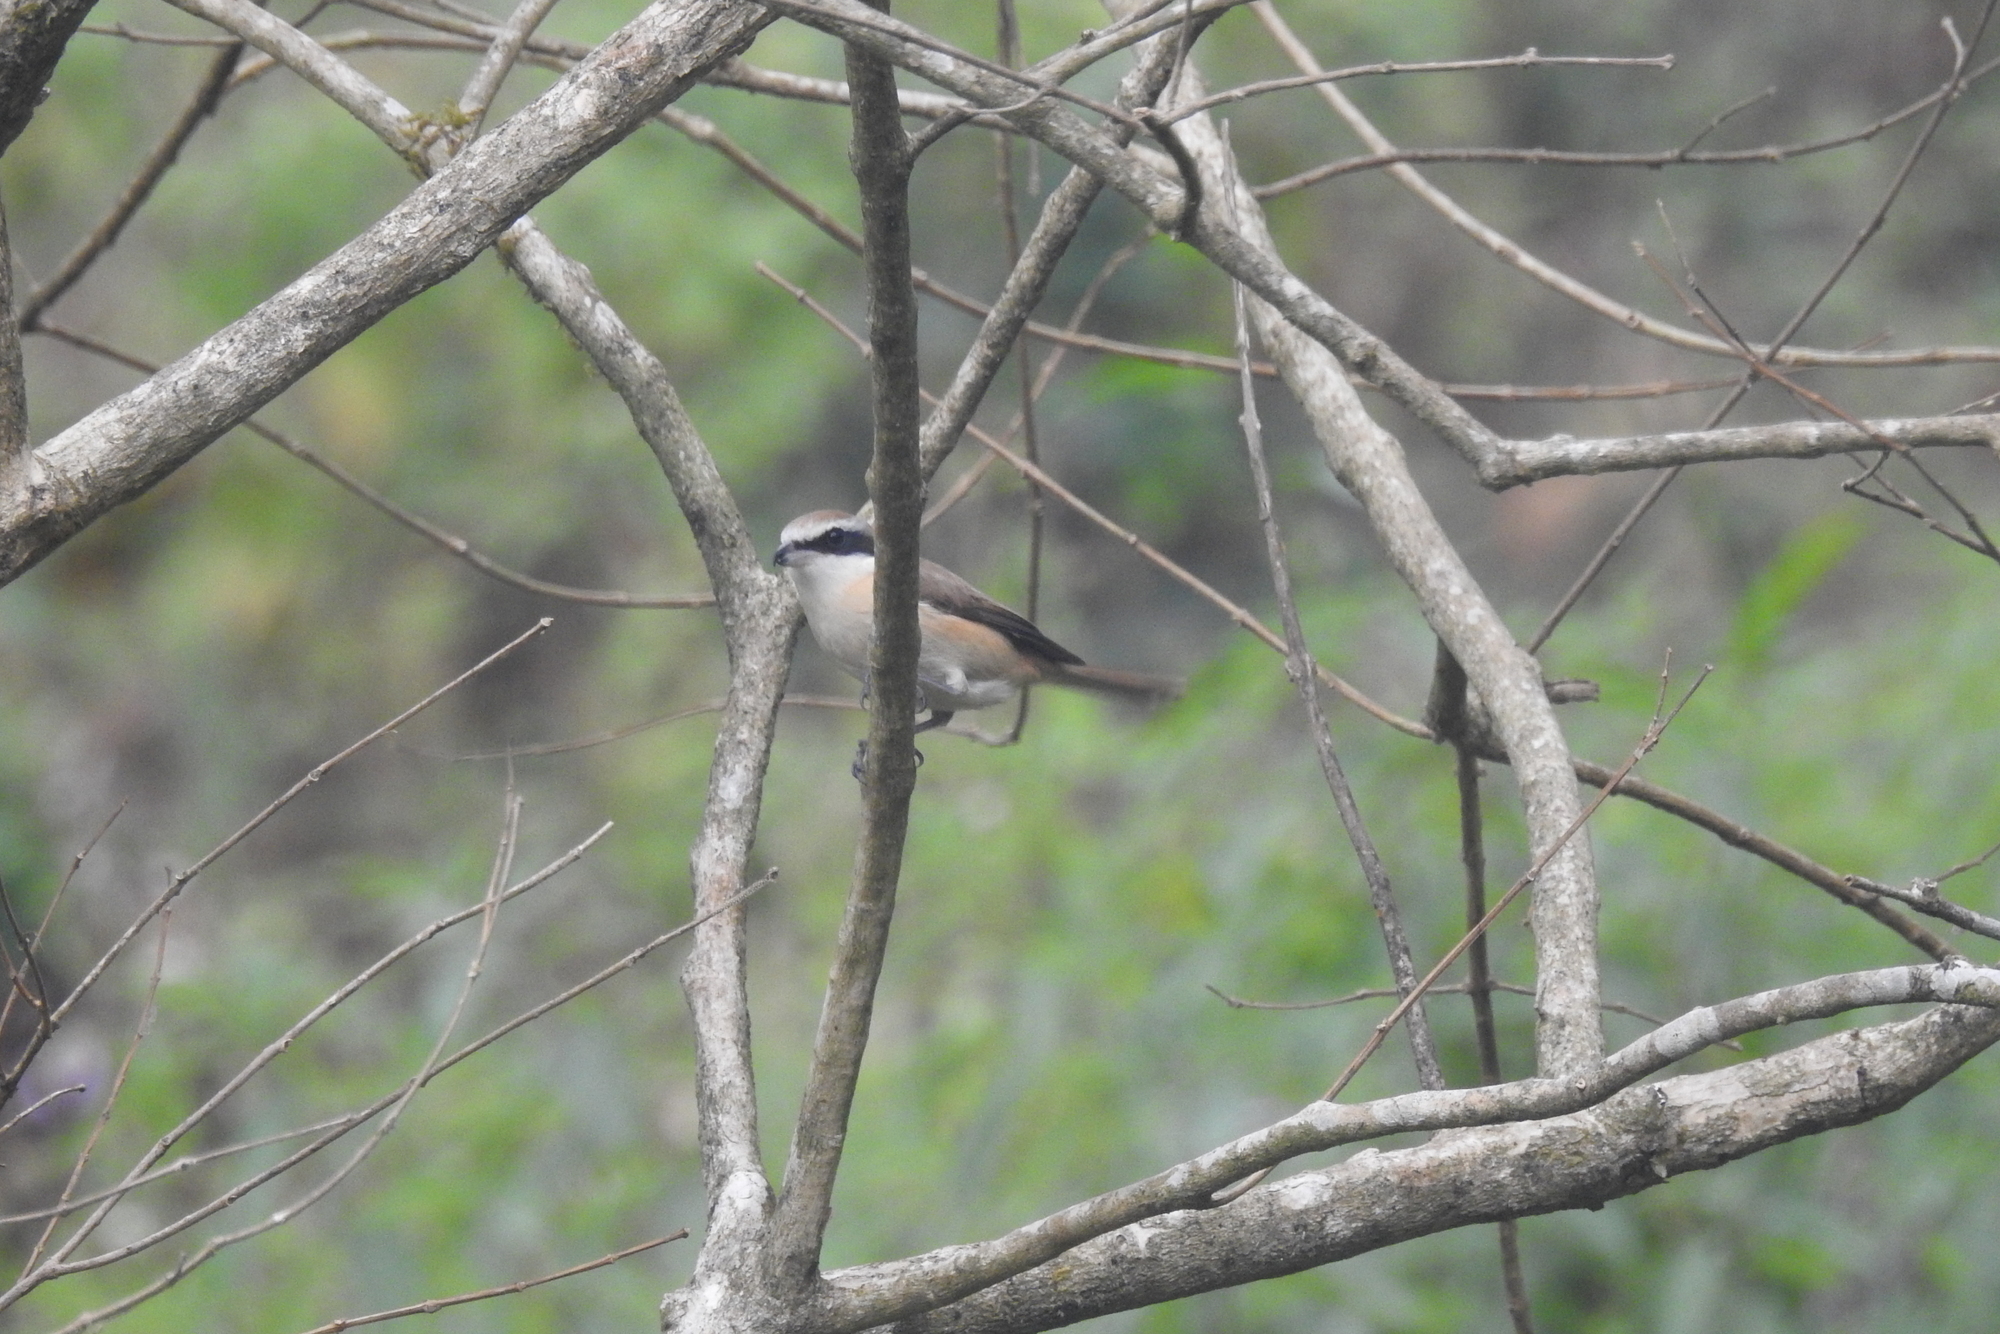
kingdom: Animalia
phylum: Chordata
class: Aves
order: Passeriformes
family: Laniidae
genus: Lanius
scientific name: Lanius cristatus
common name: Brown shrike
